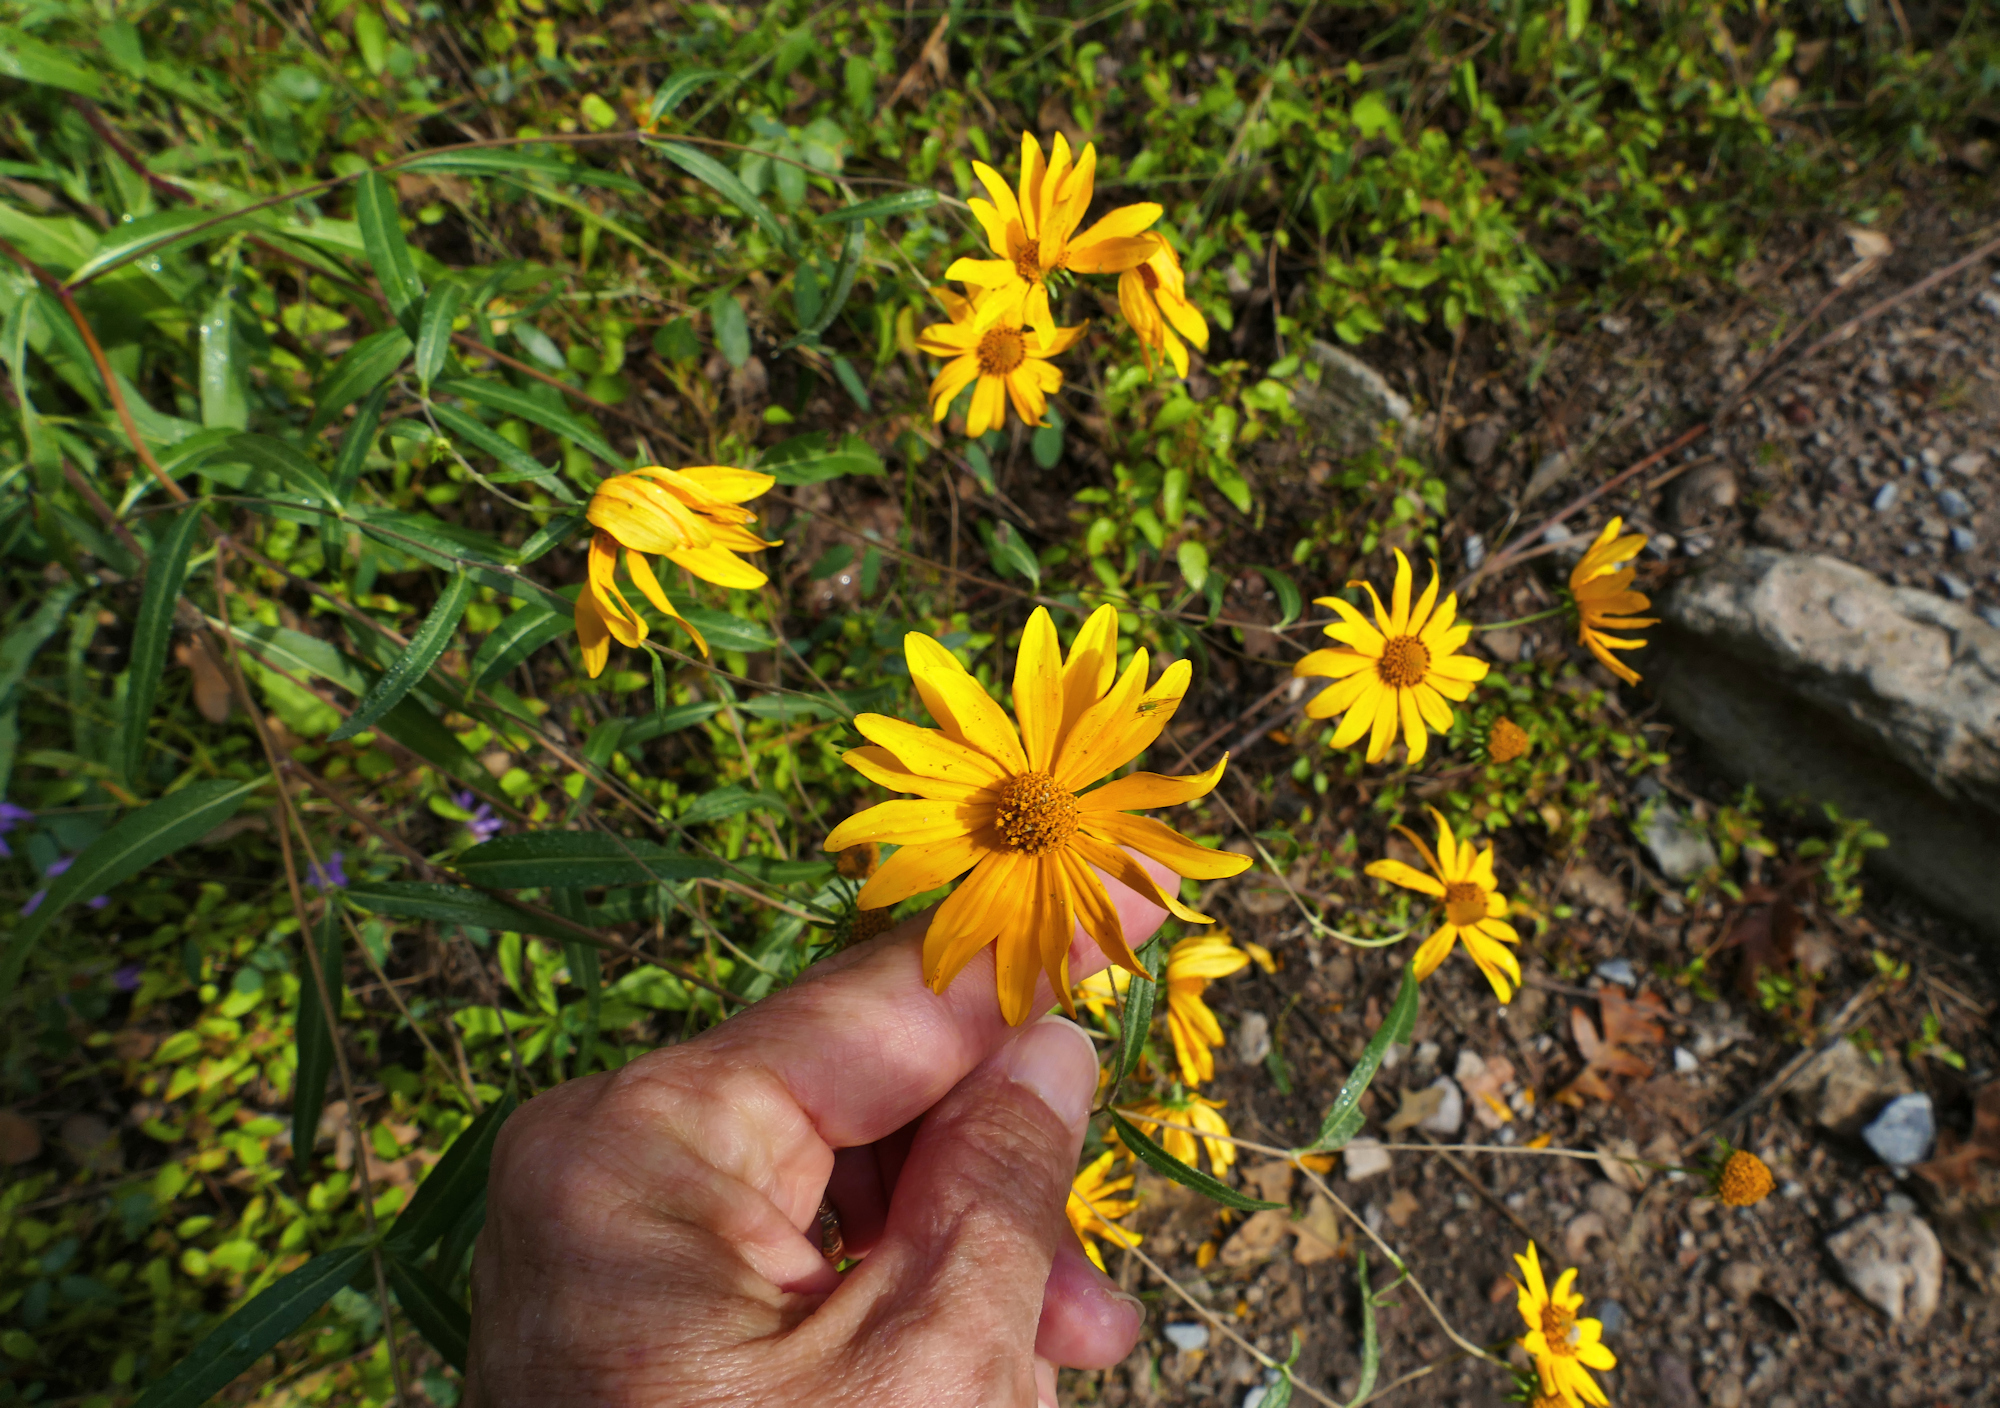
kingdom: Plantae
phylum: Tracheophyta
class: Magnoliopsida
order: Asterales
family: Asteraceae
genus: Heliomeris
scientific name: Heliomeris multiflora
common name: Showy goldeneye
